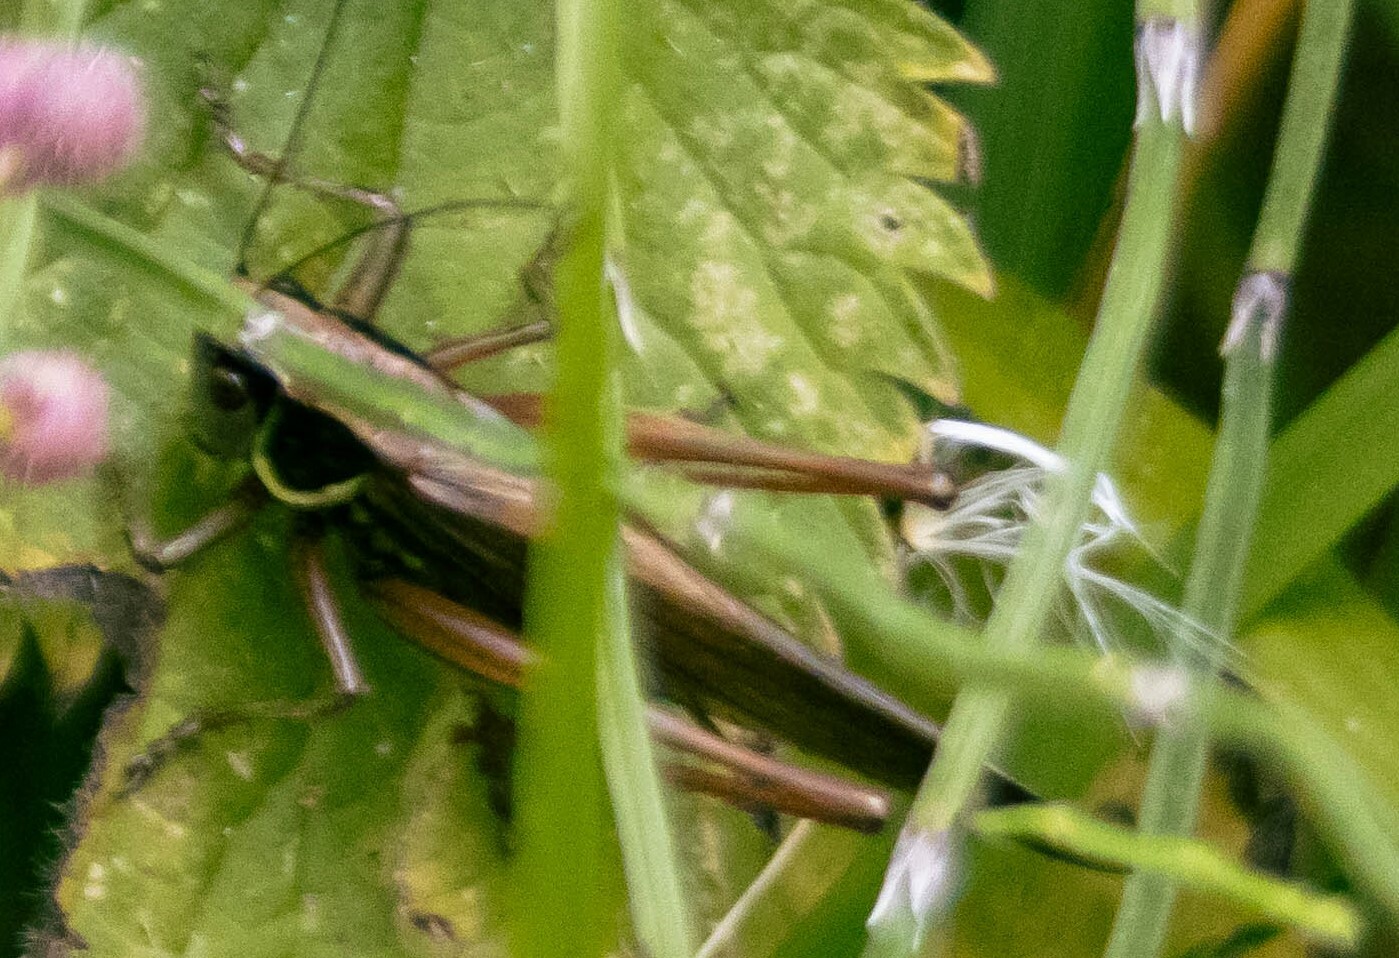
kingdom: Animalia
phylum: Arthropoda
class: Insecta
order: Orthoptera
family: Tettigoniidae
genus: Roeseliana
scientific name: Roeseliana roeselii
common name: Roesel's bush cricket
